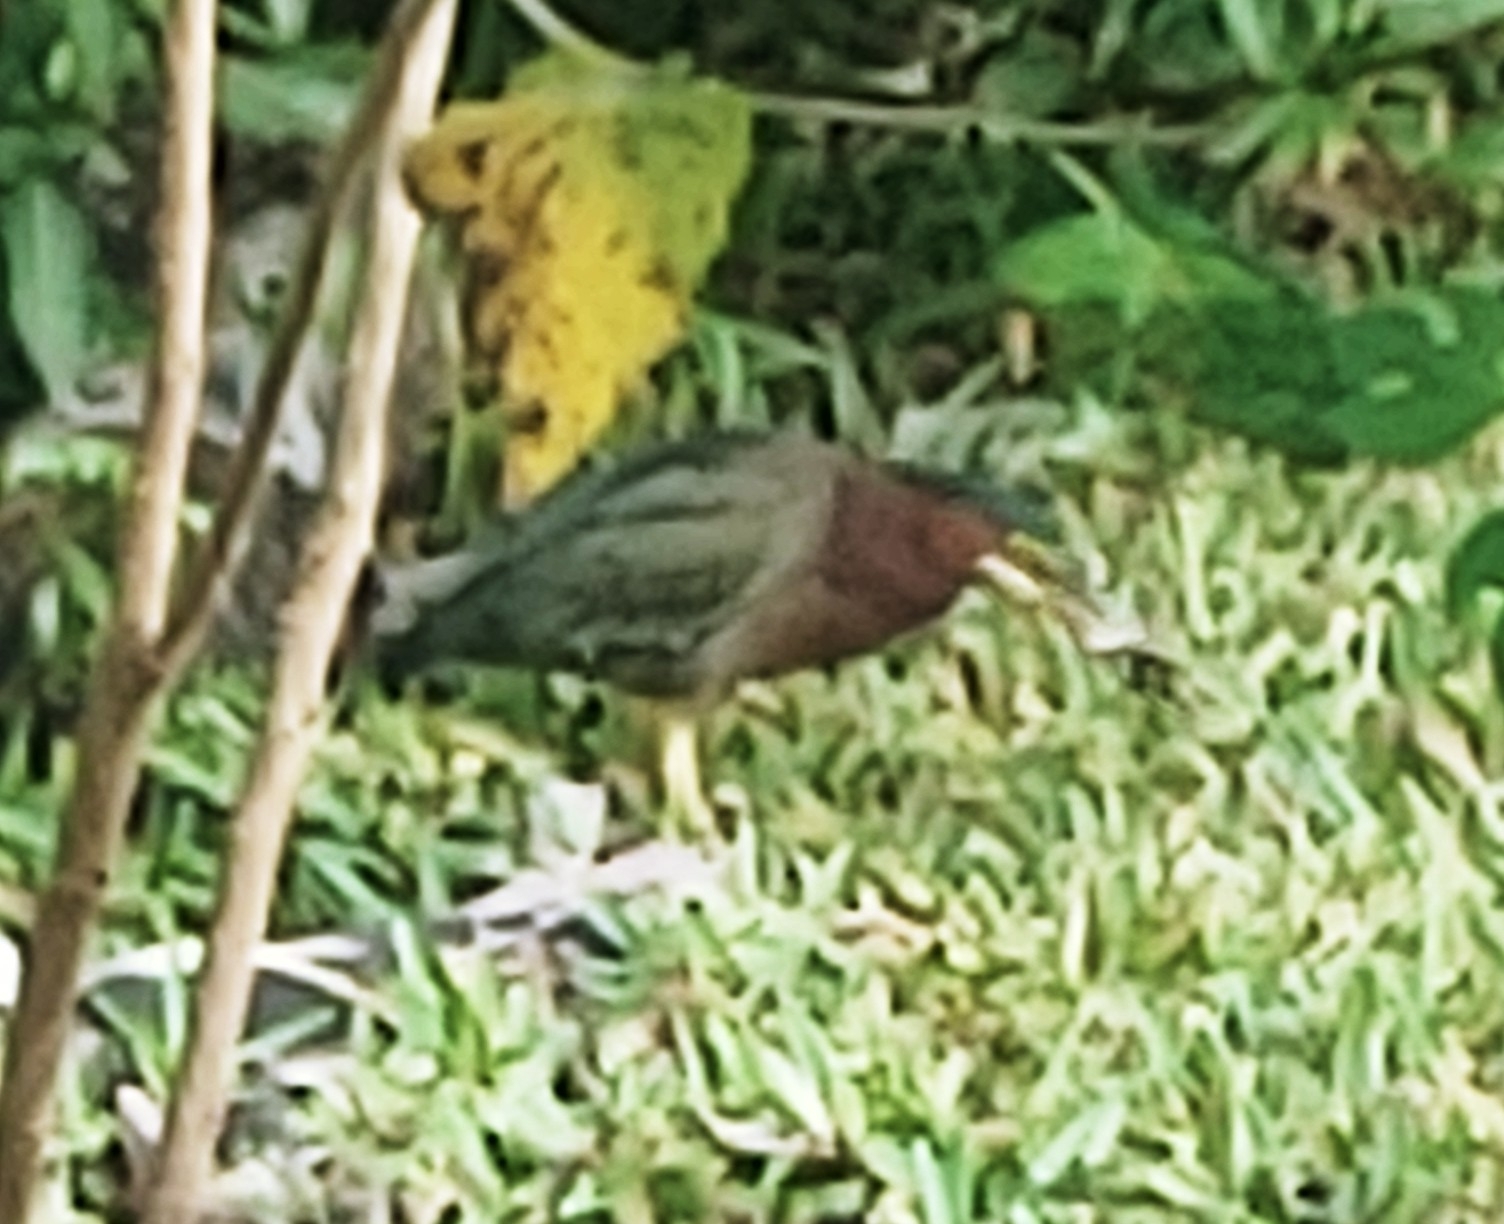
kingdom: Animalia
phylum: Chordata
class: Aves
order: Pelecaniformes
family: Ardeidae
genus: Butorides
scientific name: Butorides virescens
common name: Green heron
